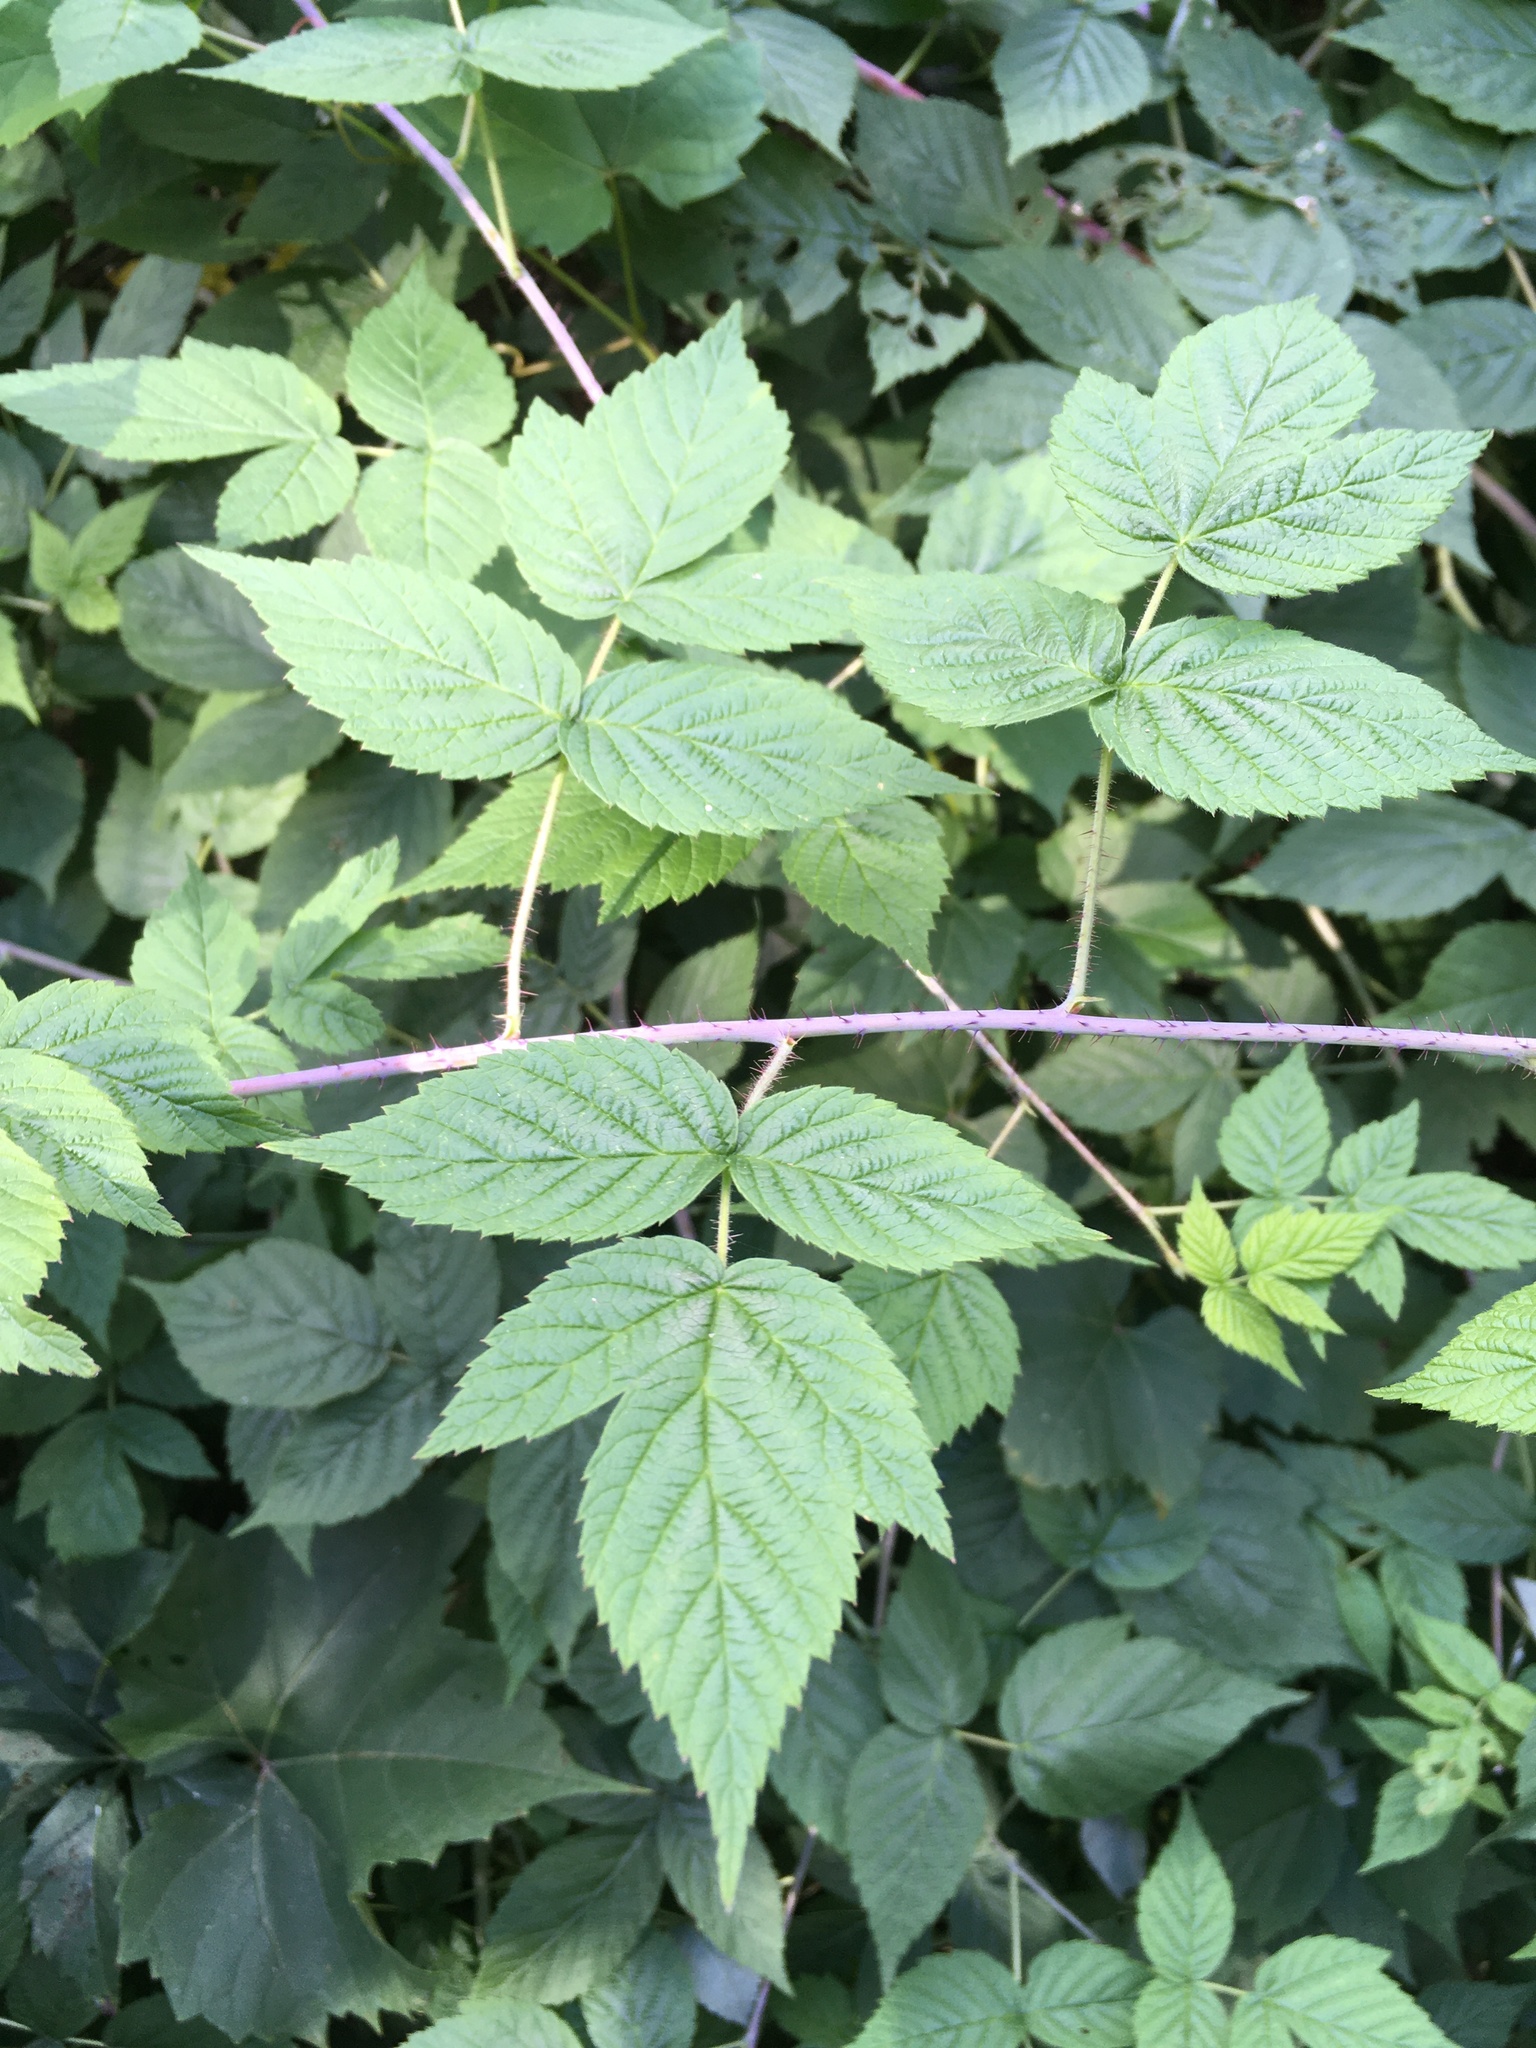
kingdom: Plantae
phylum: Tracheophyta
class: Magnoliopsida
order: Rosales
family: Rosaceae
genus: Rubus
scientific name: Rubus idaeus
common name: Raspberry
